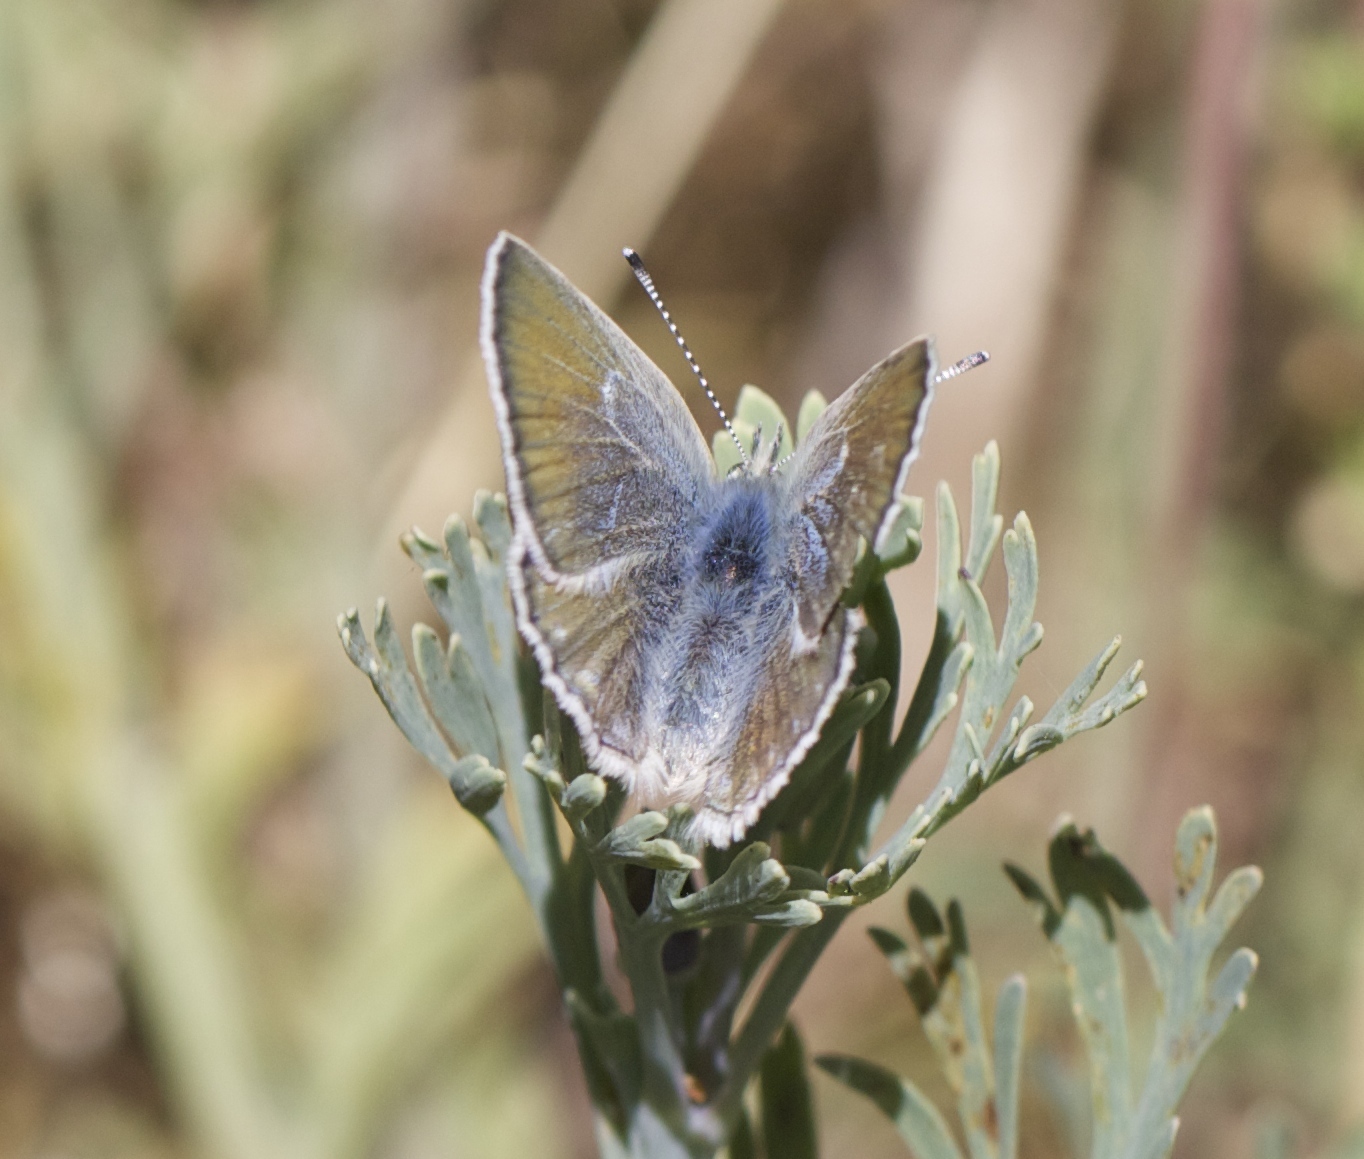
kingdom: Animalia
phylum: Arthropoda
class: Insecta
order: Lepidoptera
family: Lycaenidae
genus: Icaricia
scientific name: Icaricia icarioides
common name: Boisduval's blue
